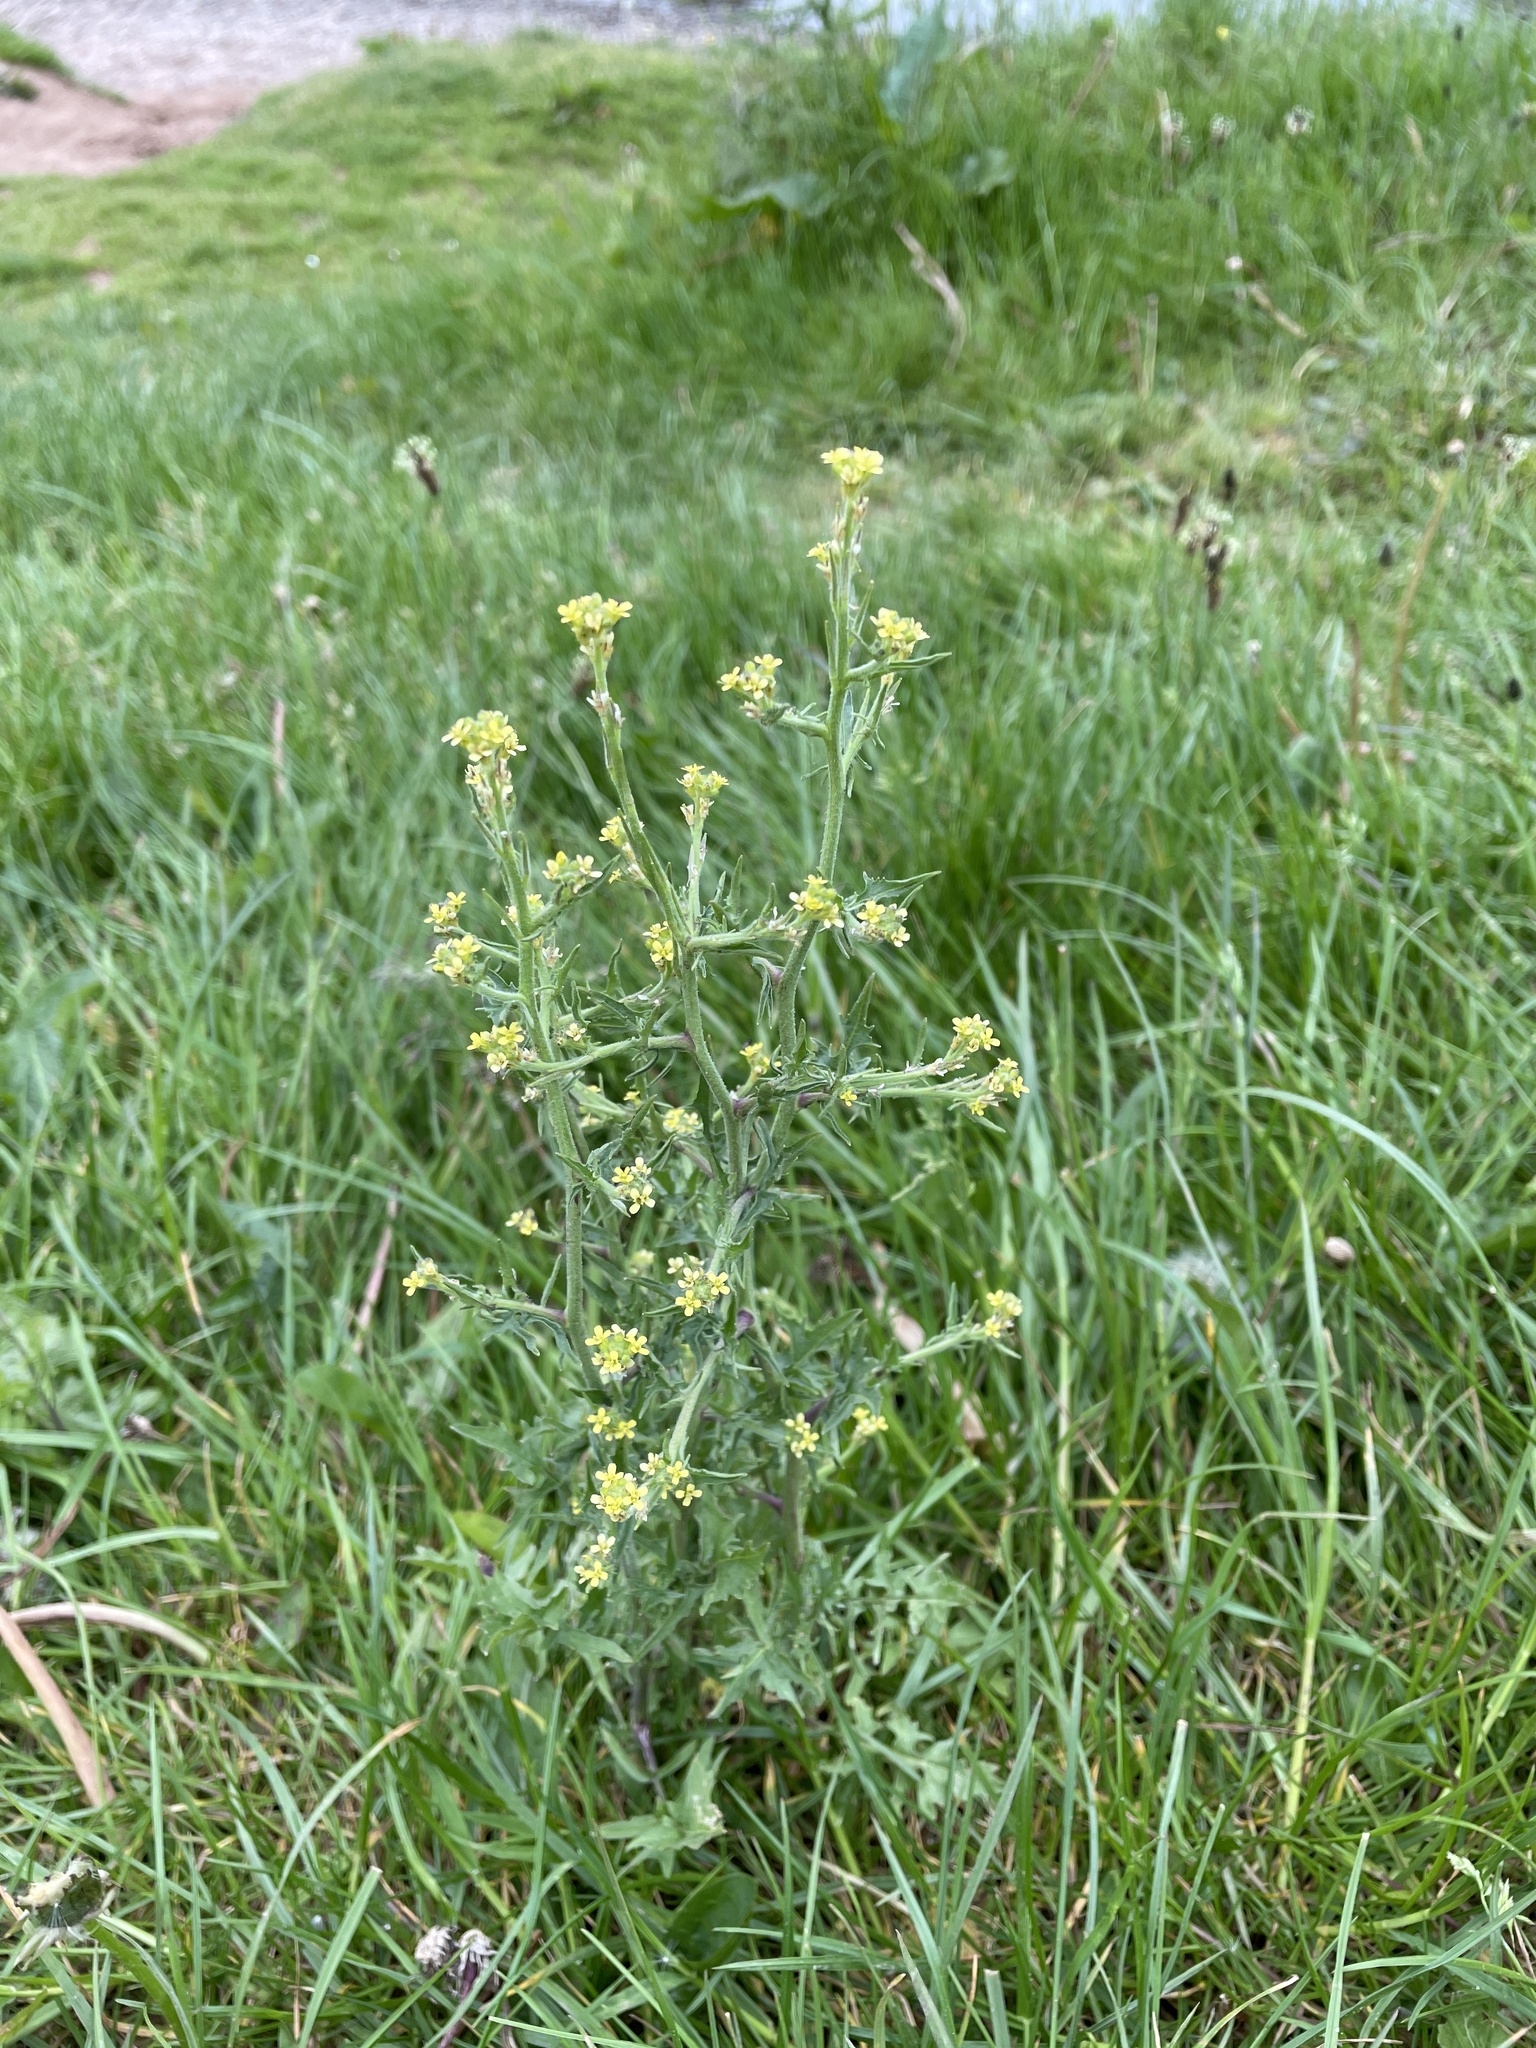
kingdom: Plantae
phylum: Tracheophyta
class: Magnoliopsida
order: Brassicales
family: Brassicaceae
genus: Sisymbrium
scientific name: Sisymbrium officinale
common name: Hedge mustard
